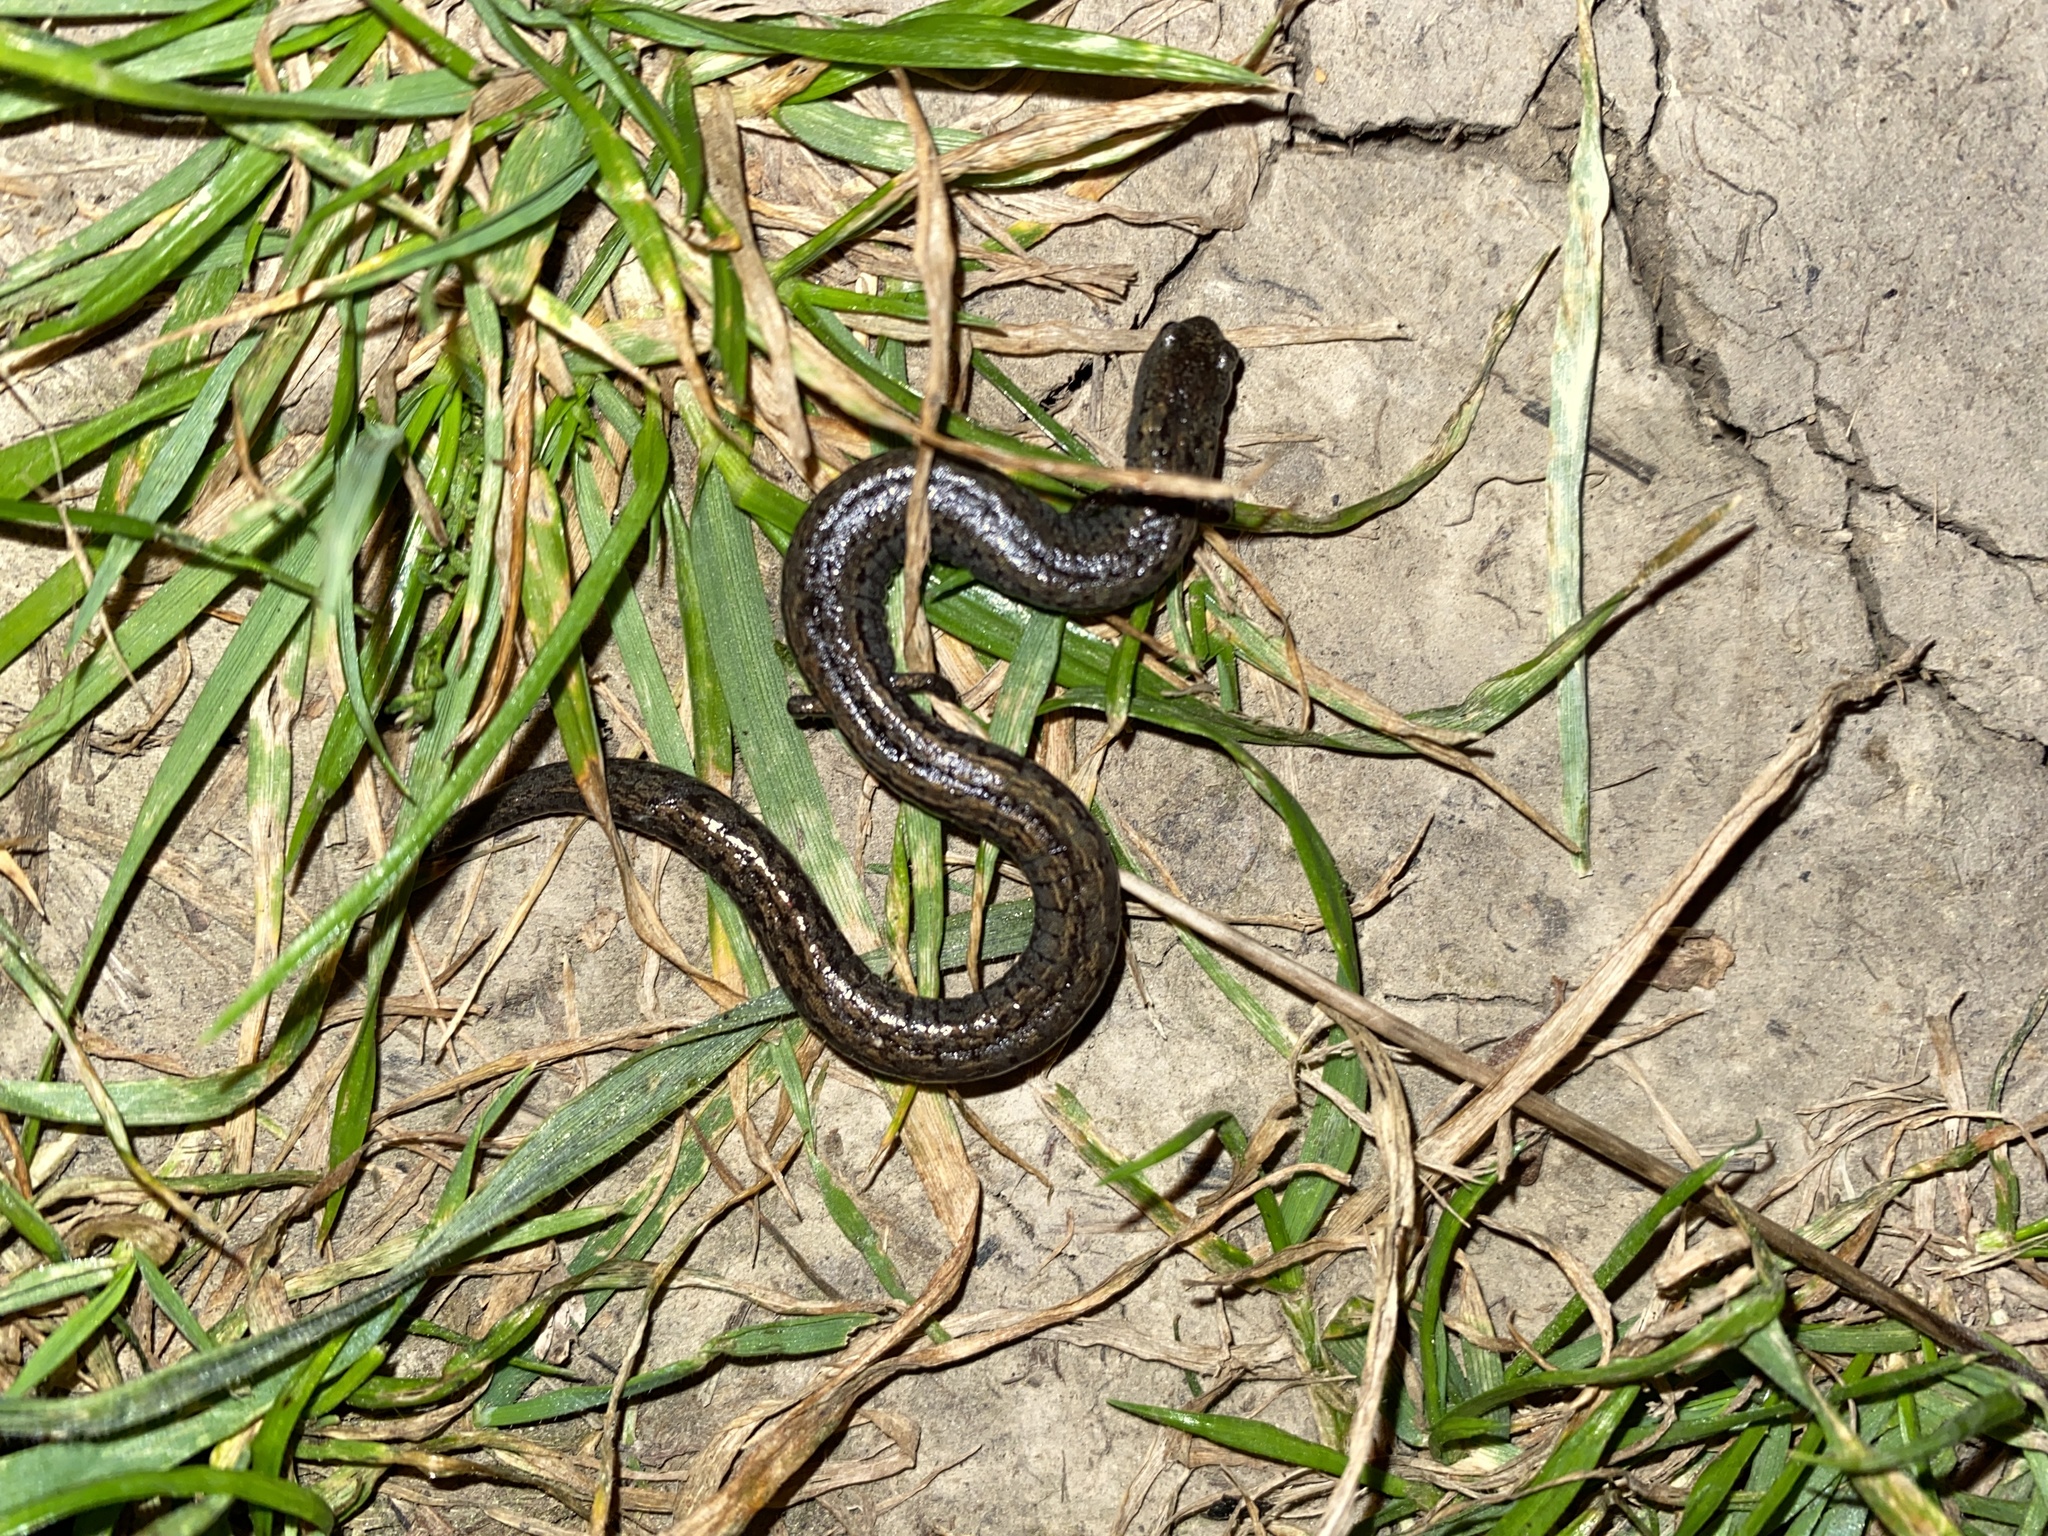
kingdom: Animalia
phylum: Chordata
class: Amphibia
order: Caudata
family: Plethodontidae
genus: Batrachoseps
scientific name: Batrachoseps attenuatus
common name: California slender salamander
